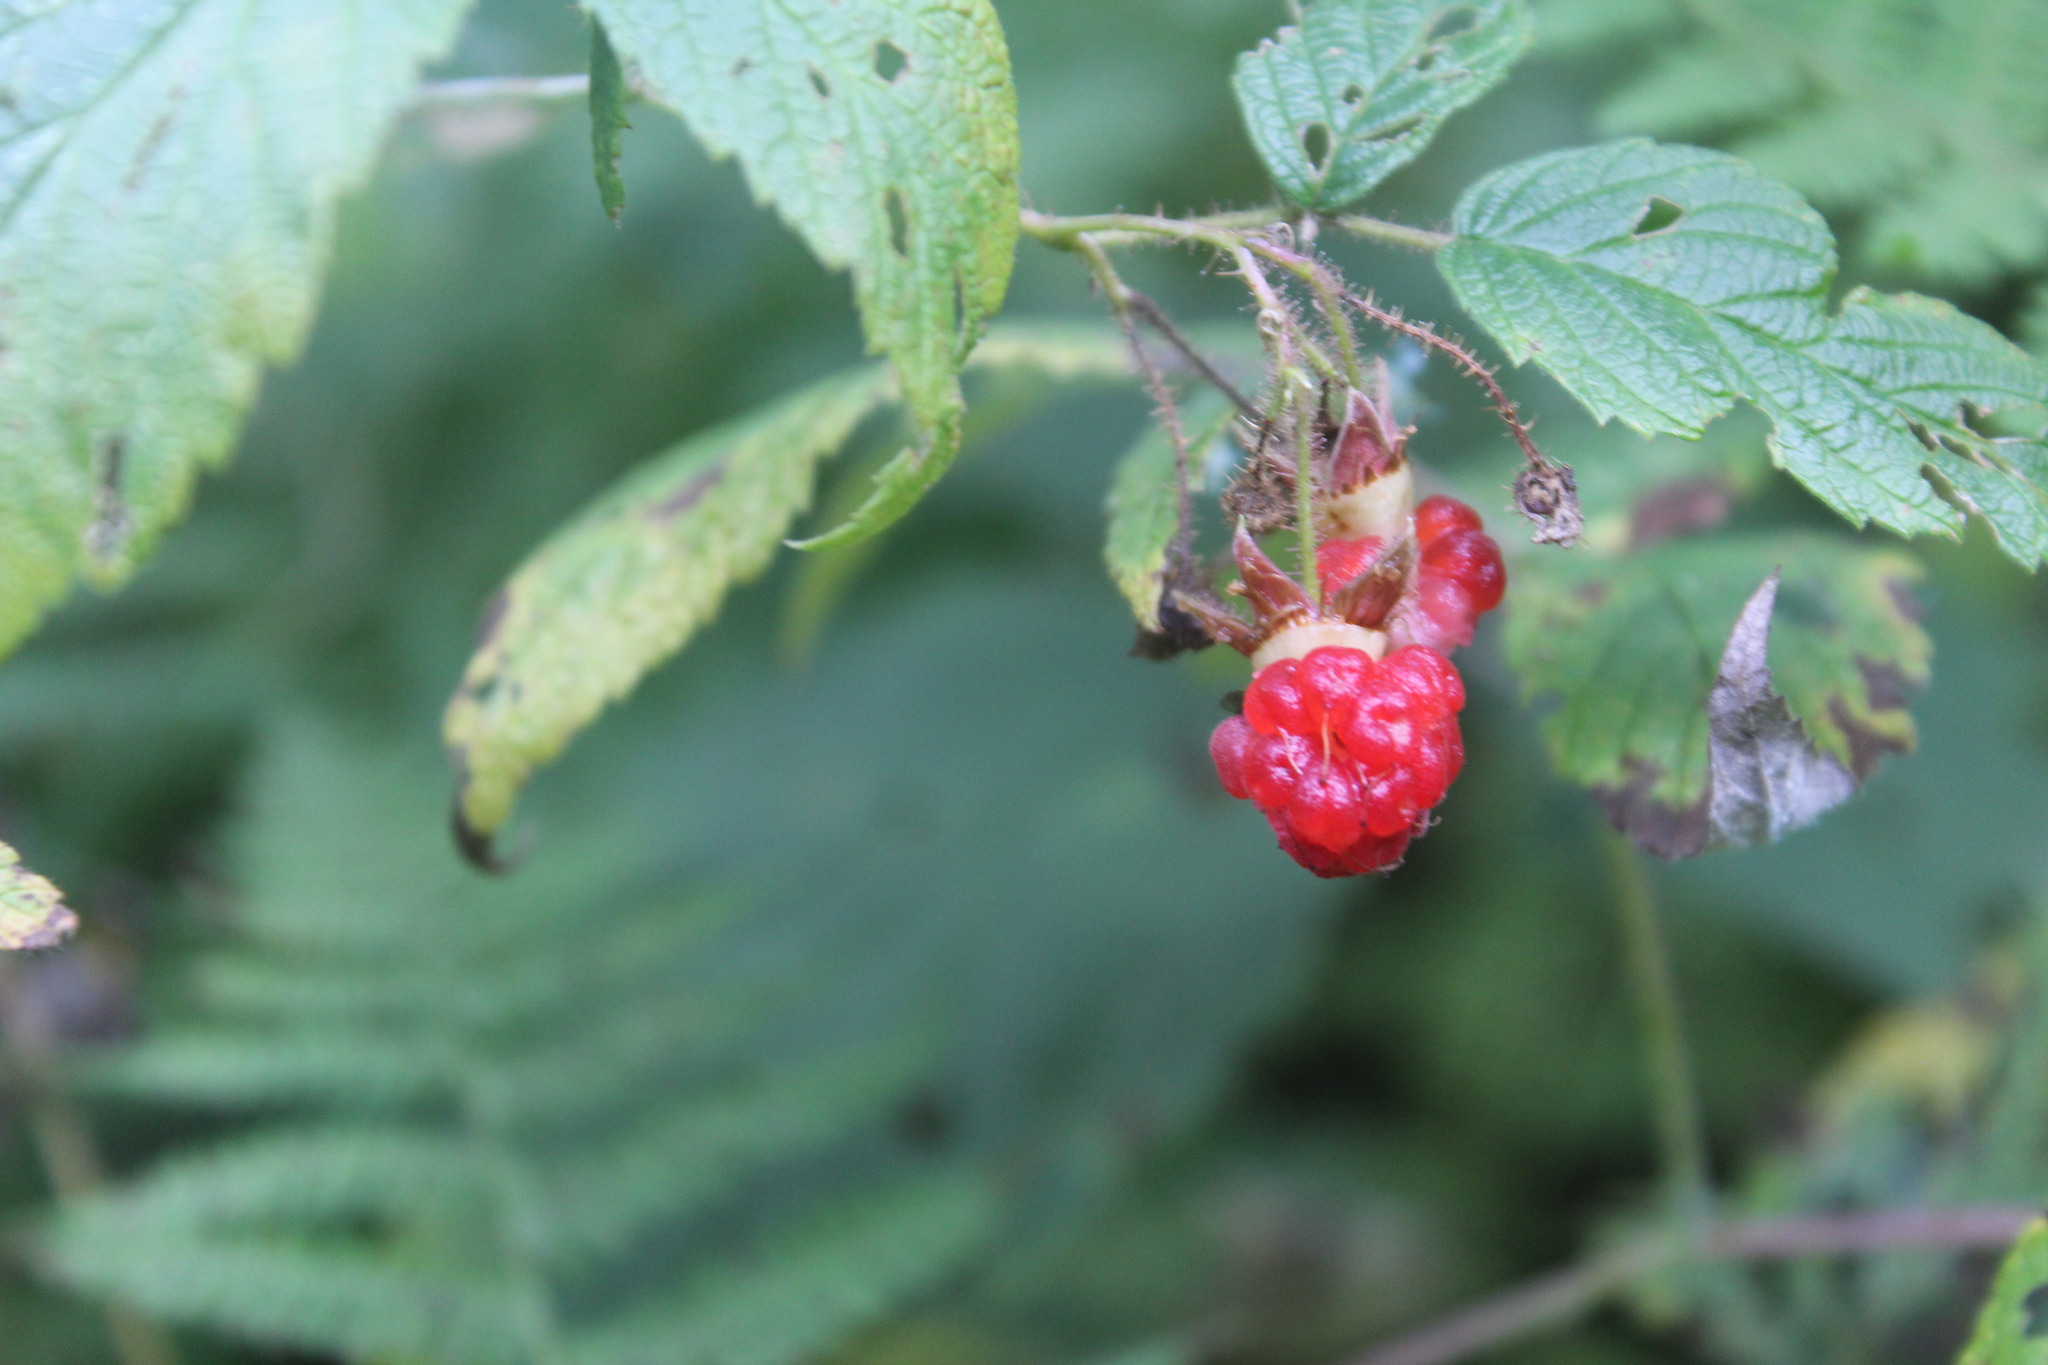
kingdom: Plantae
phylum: Tracheophyta
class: Magnoliopsida
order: Rosales
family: Rosaceae
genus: Rubus
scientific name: Rubus idaeus
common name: Raspberry
